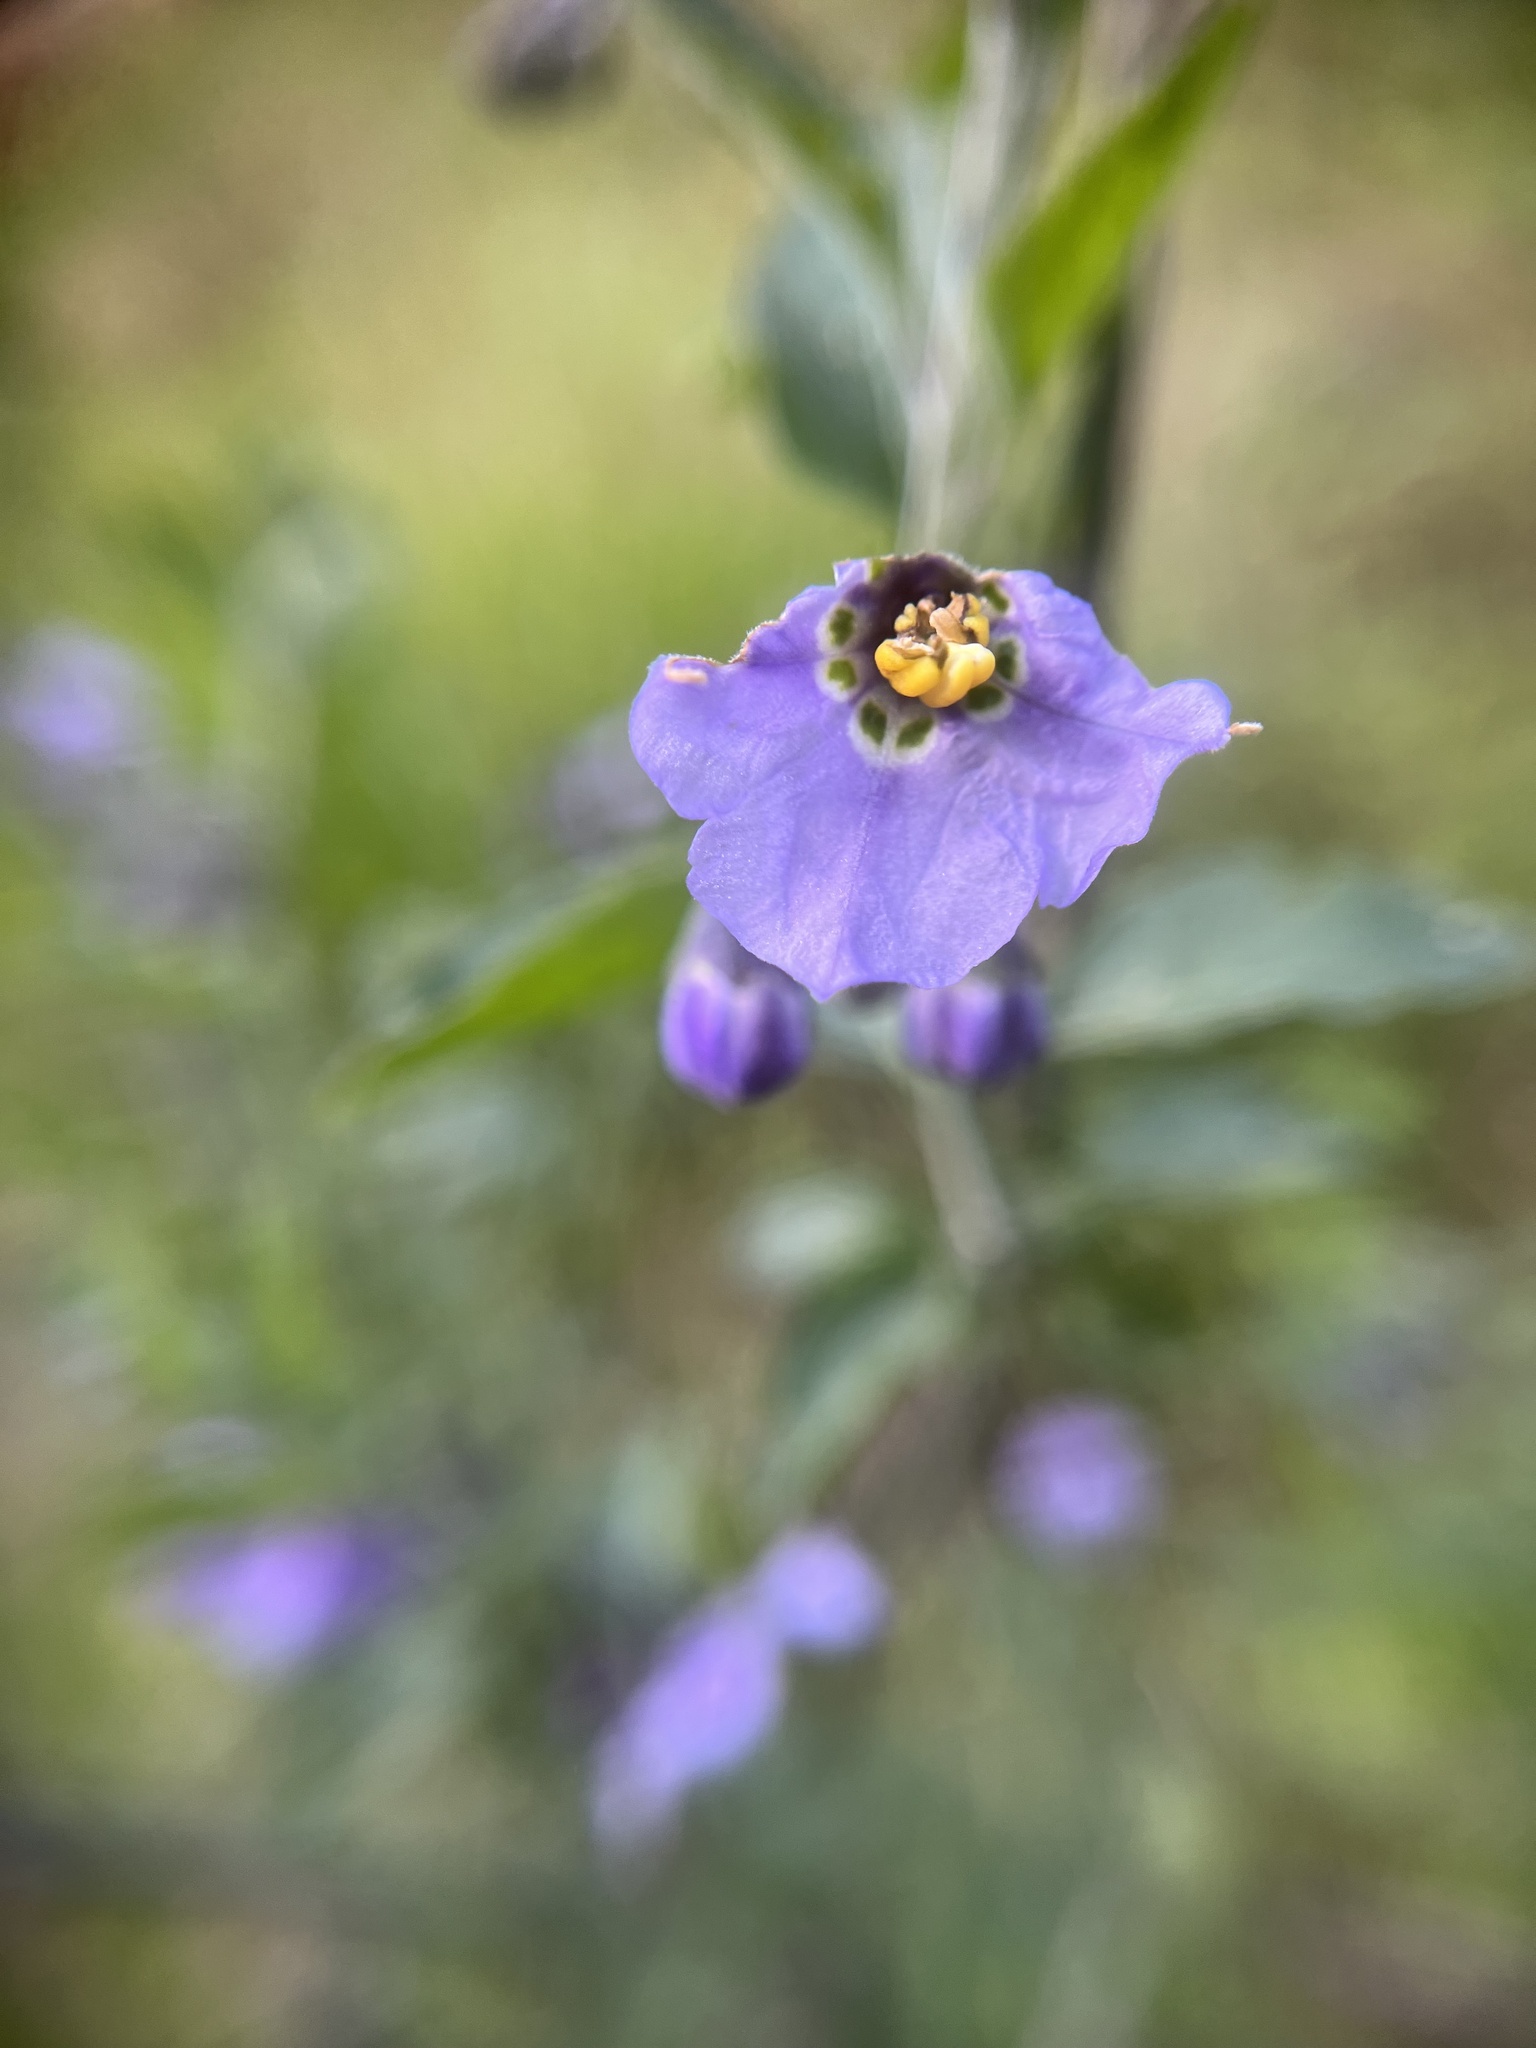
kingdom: Plantae
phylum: Tracheophyta
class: Magnoliopsida
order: Solanales
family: Solanaceae
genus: Solanum
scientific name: Solanum umbelliferum
